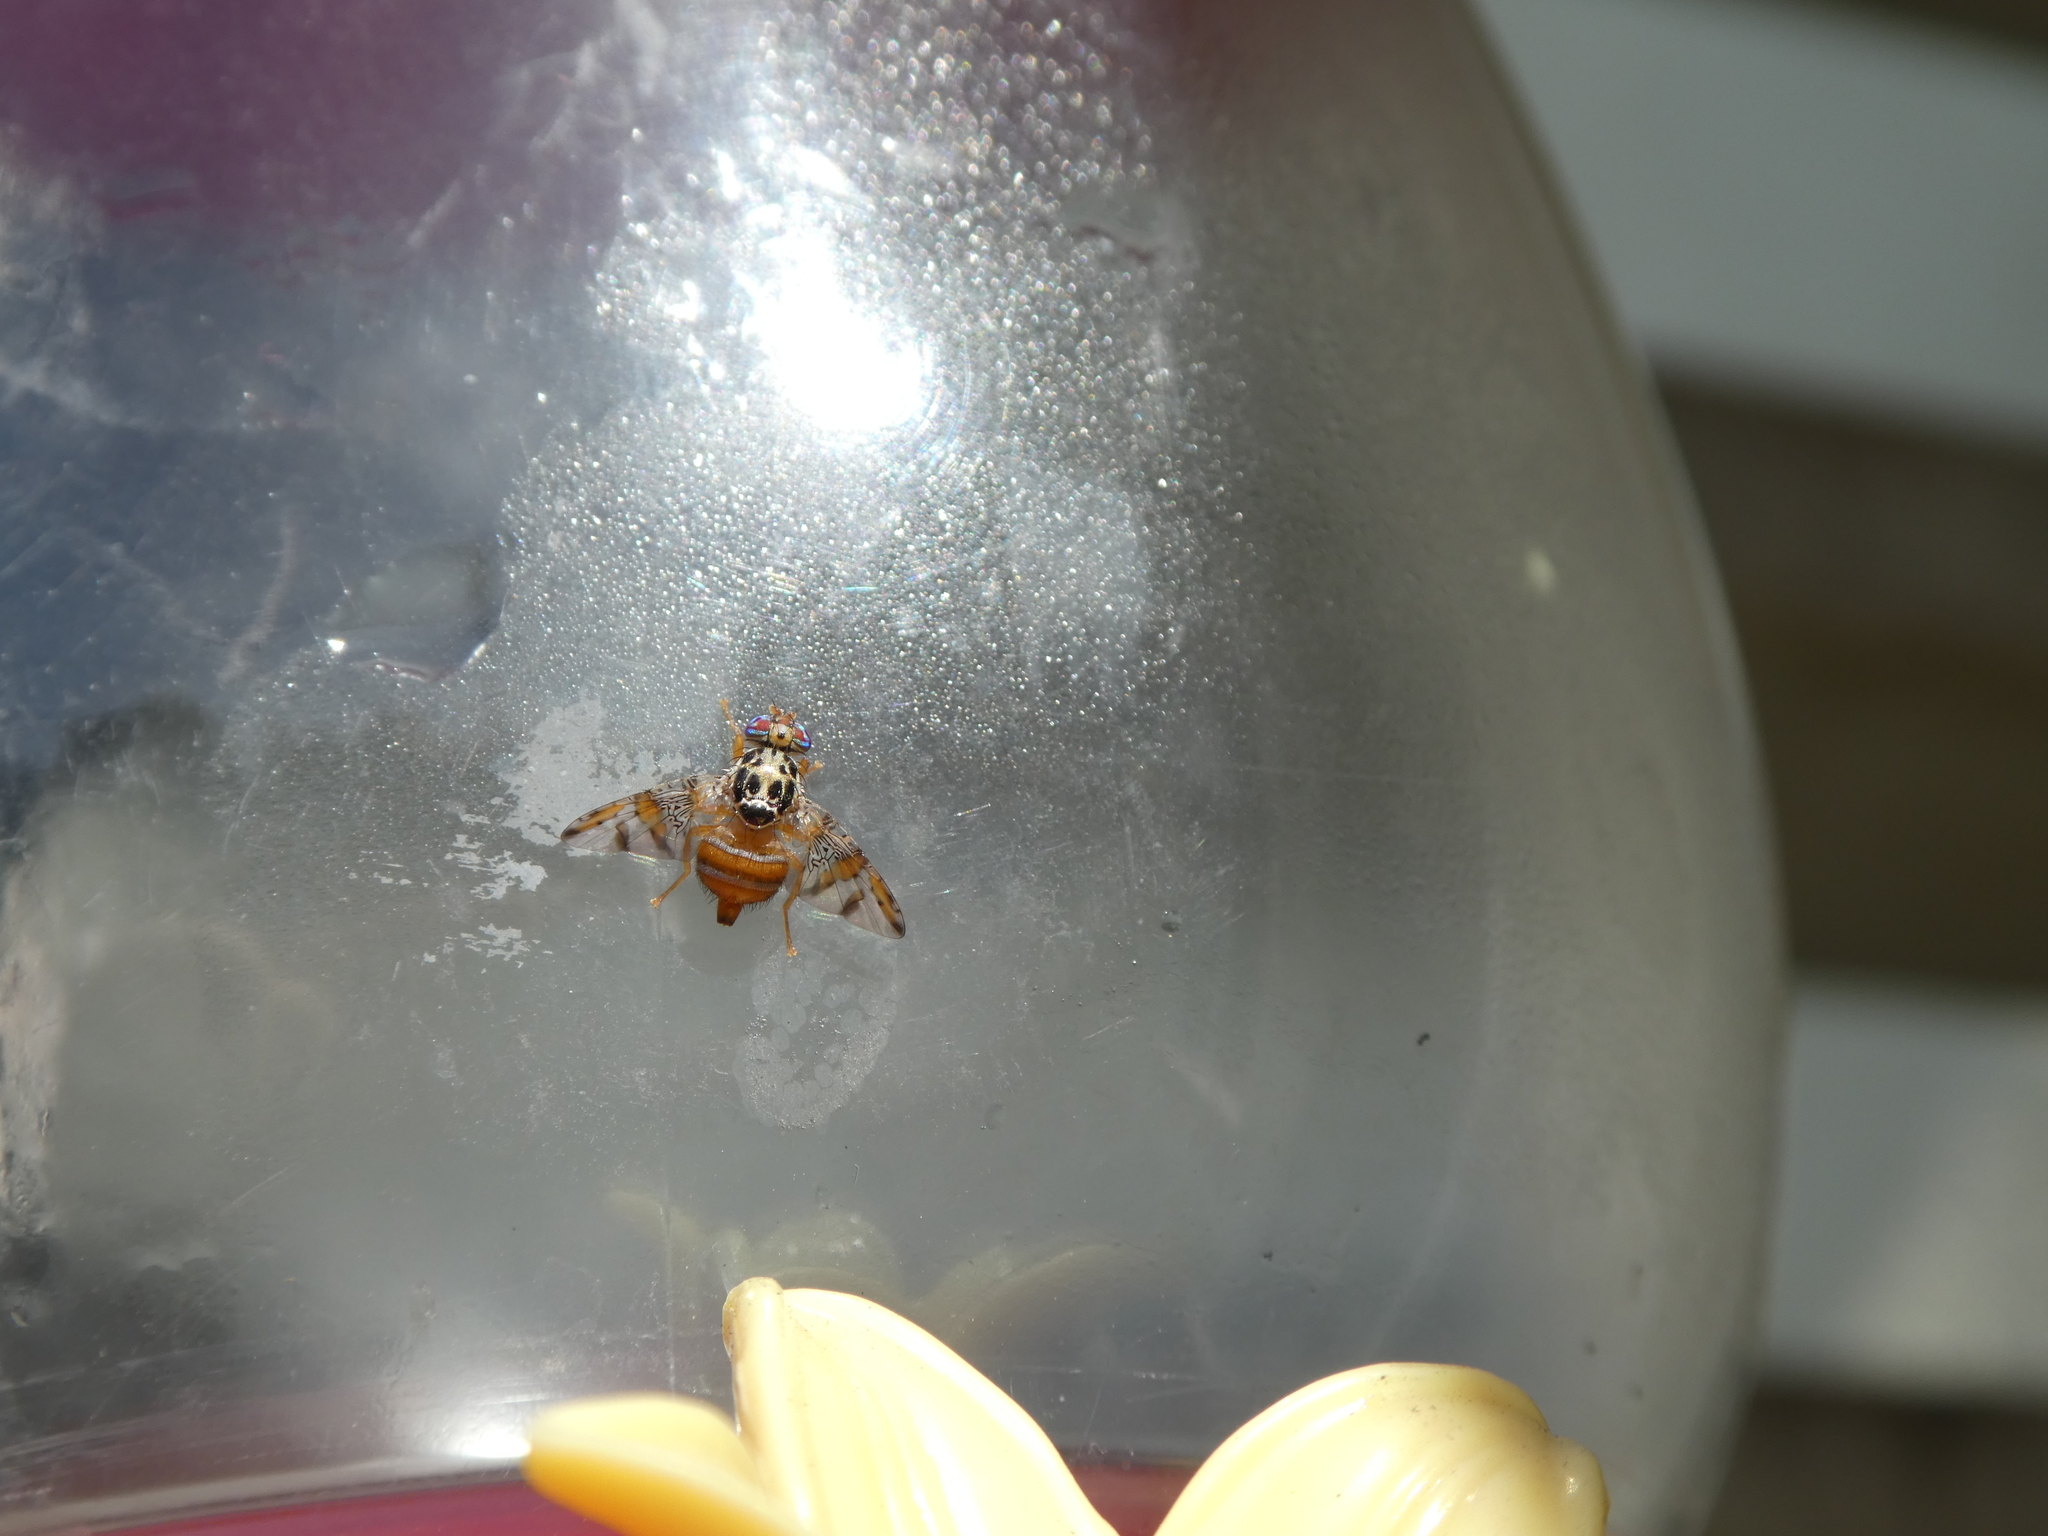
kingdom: Animalia
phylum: Arthropoda
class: Insecta
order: Diptera
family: Tephritidae
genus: Ceratitis
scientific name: Ceratitis capitata
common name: Mediterranean fruit fly
